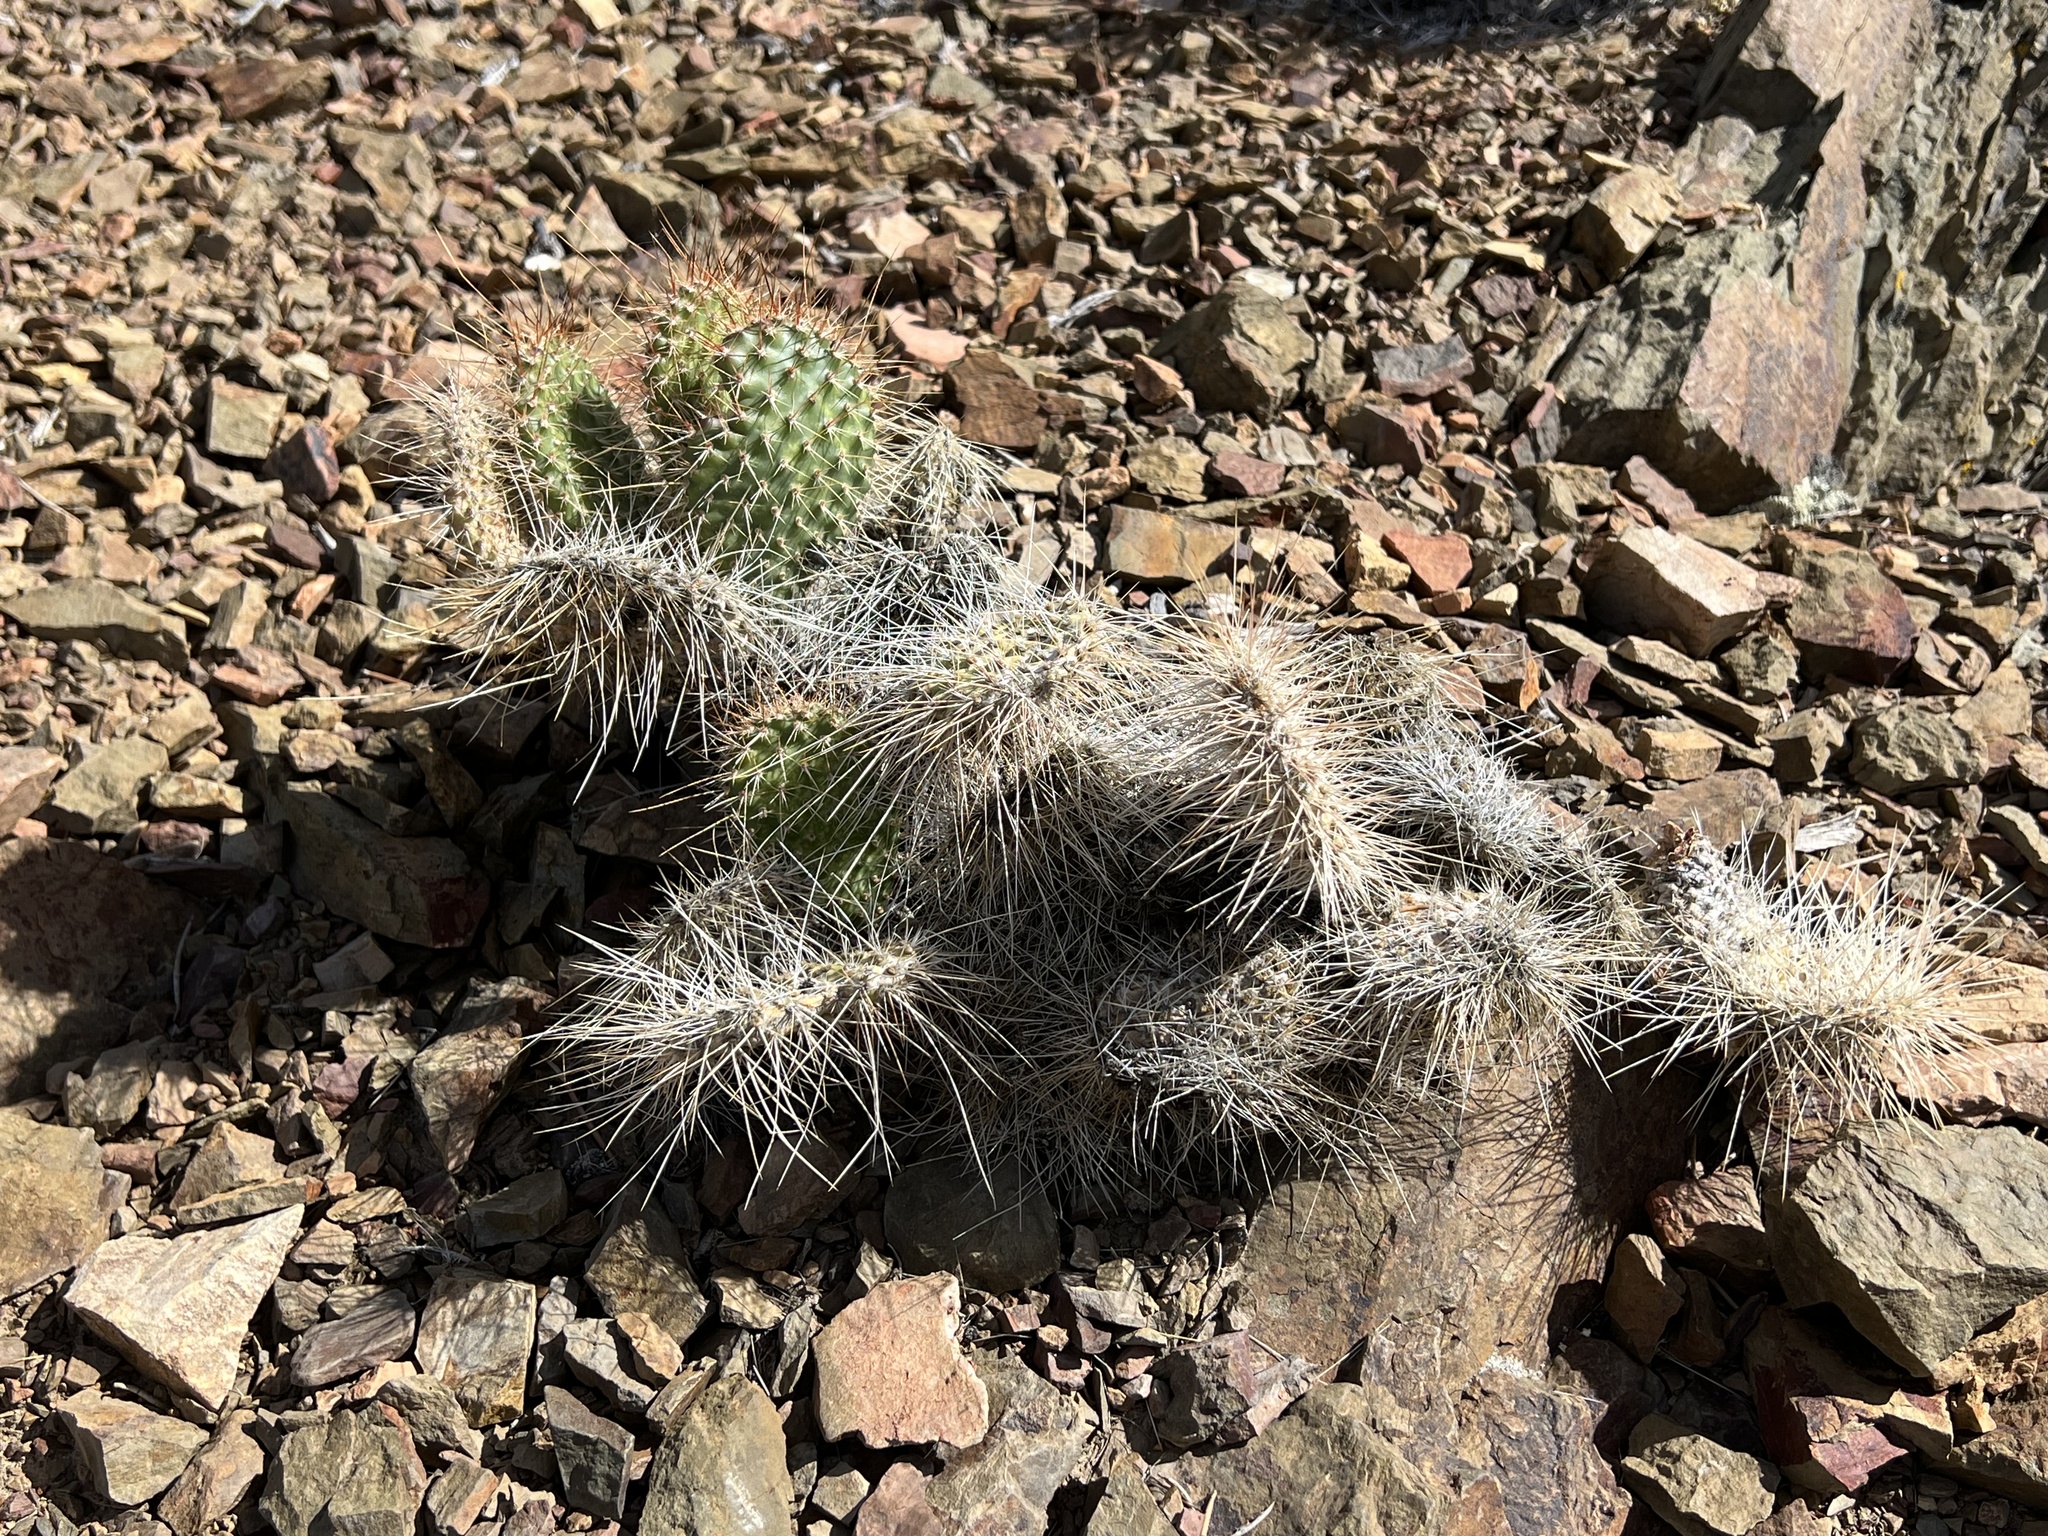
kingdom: Plantae
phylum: Tracheophyta
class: Magnoliopsida
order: Caryophyllales
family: Cactaceae
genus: Opuntia
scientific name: Opuntia polyacantha
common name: Plains prickly-pear
